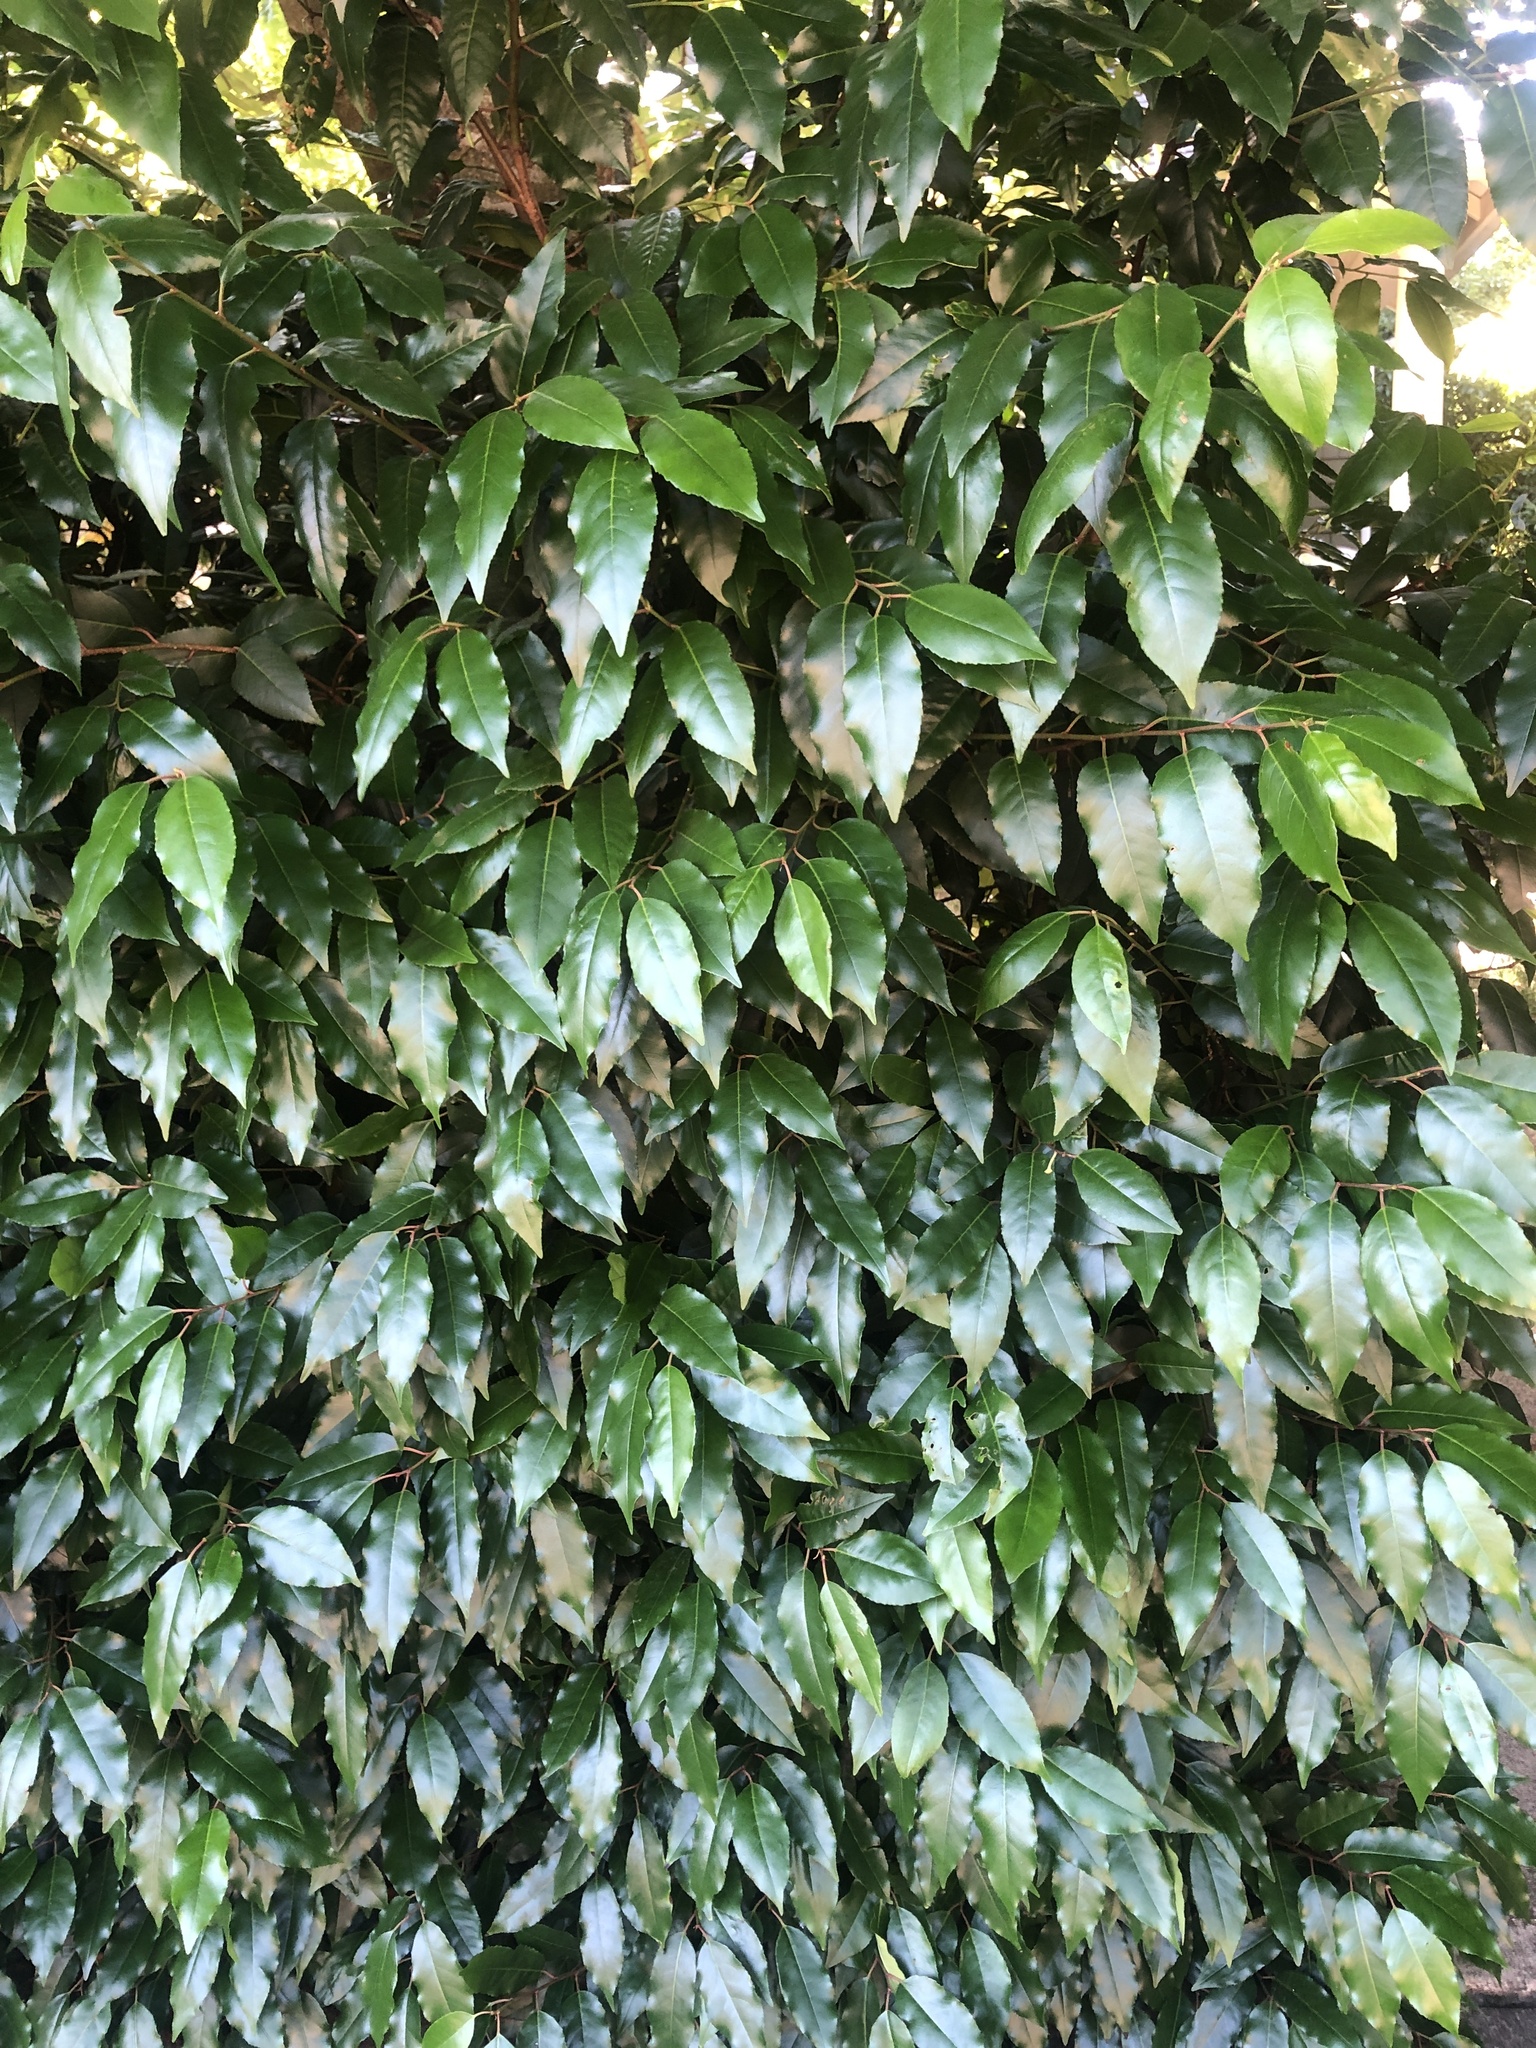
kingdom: Plantae
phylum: Tracheophyta
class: Magnoliopsida
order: Rosales
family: Rosaceae
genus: Prunus
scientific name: Prunus lusitanica
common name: Portugal laurel
